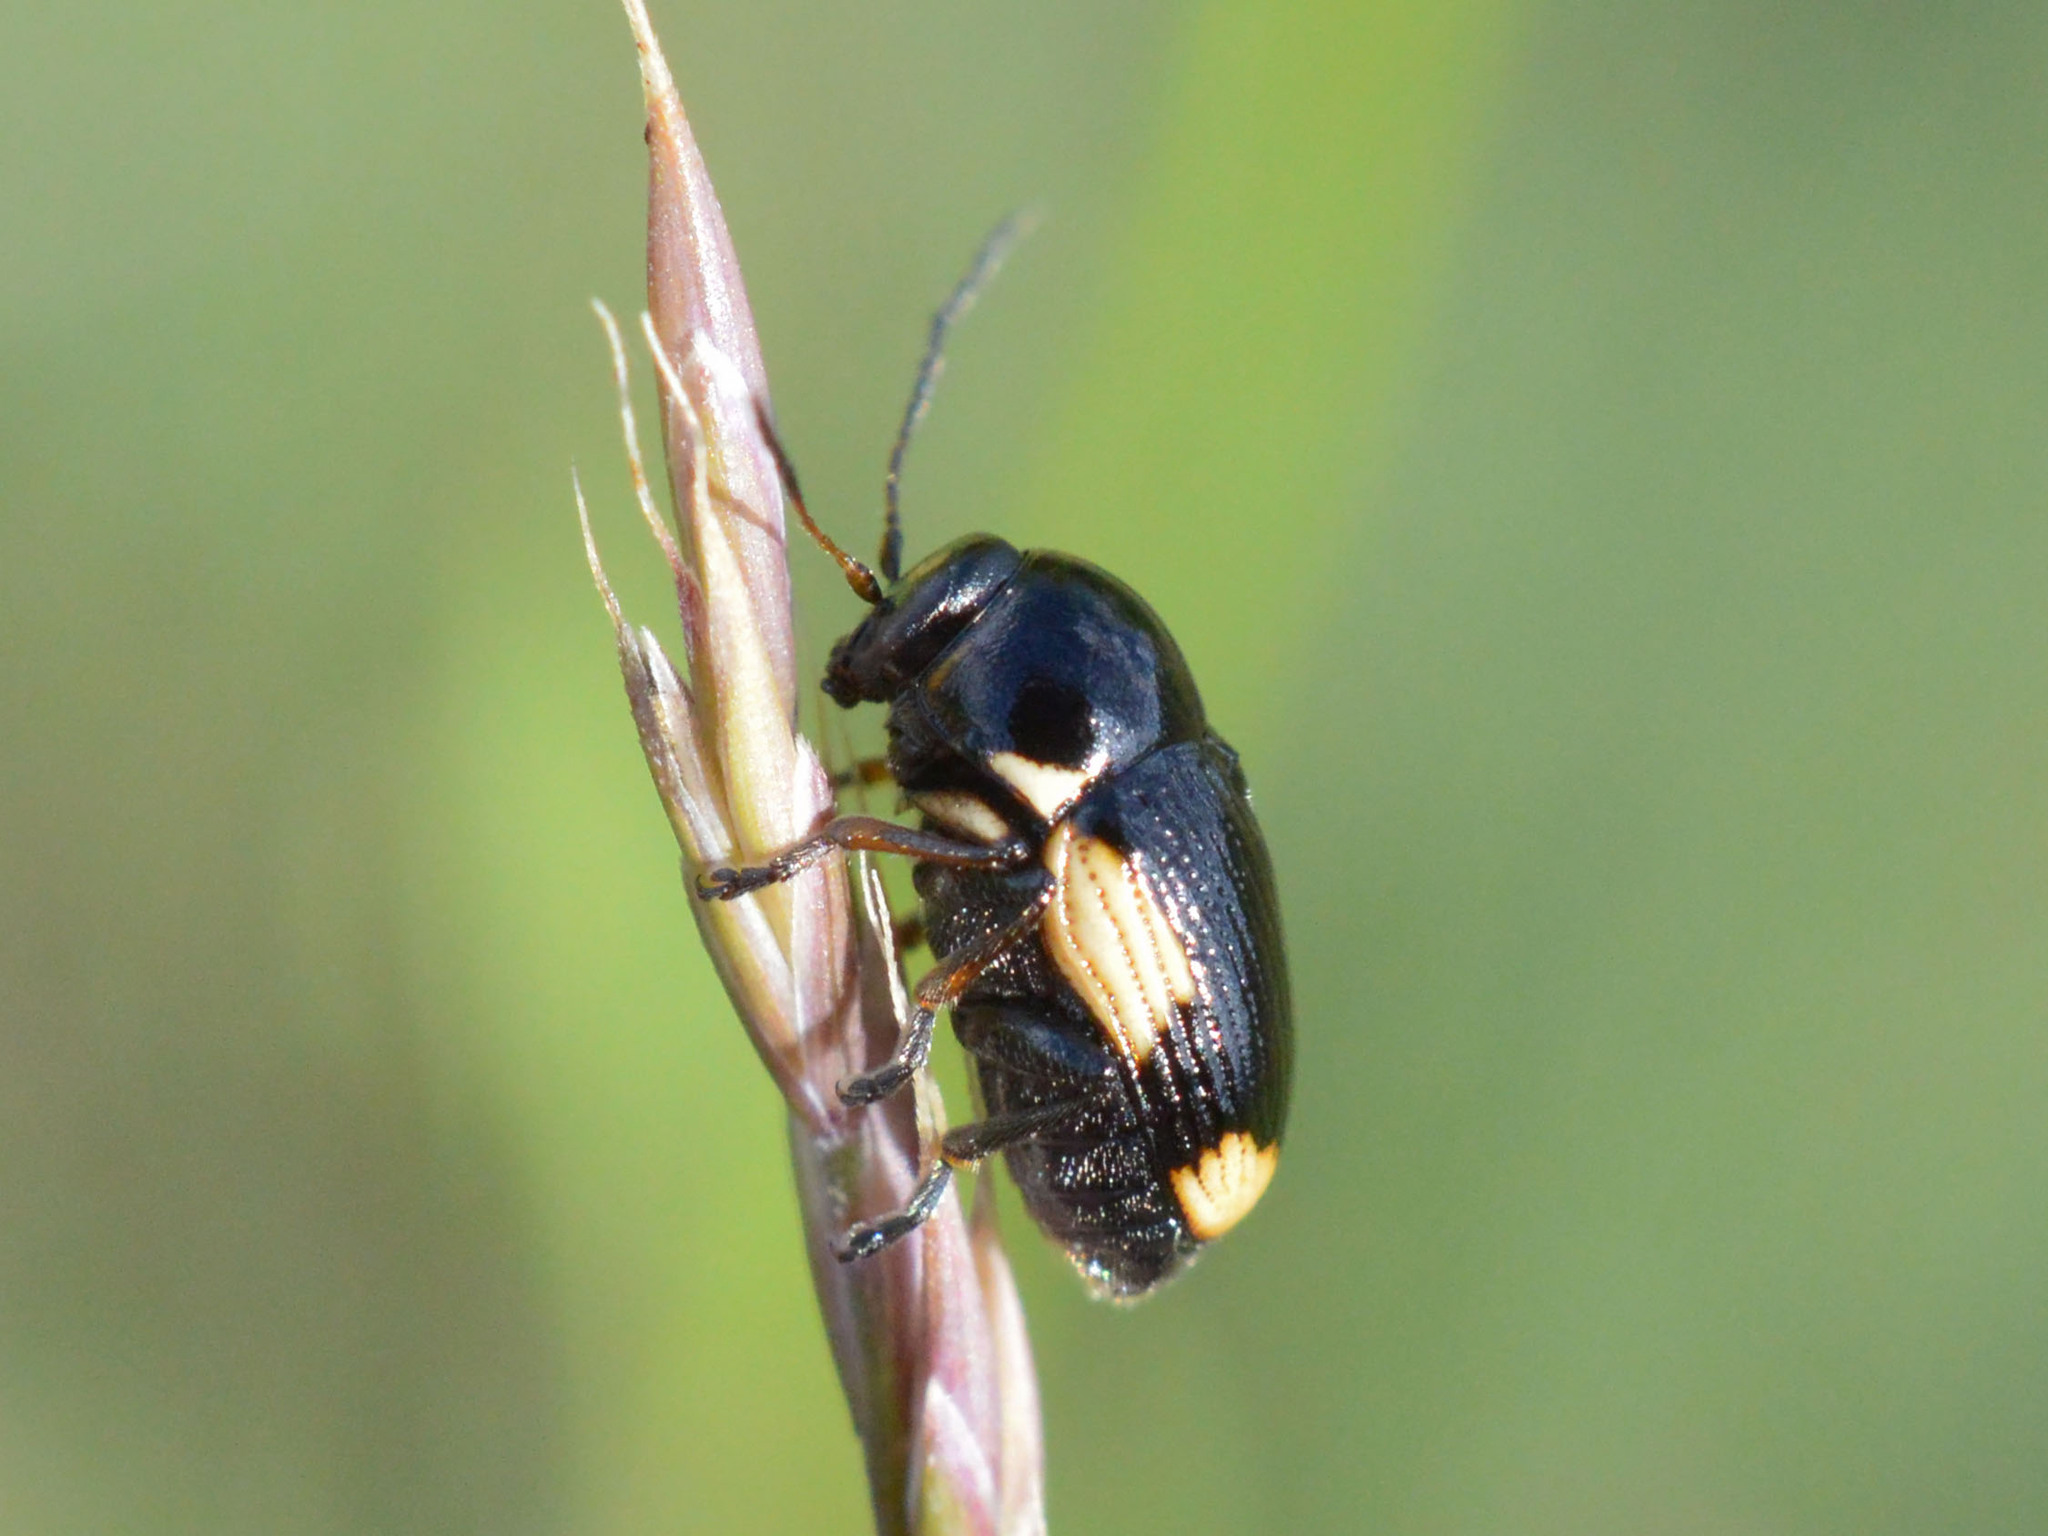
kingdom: Animalia
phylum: Arthropoda
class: Insecta
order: Coleoptera
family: Chrysomelidae
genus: Cryptocephalus
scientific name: Cryptocephalus moraei
